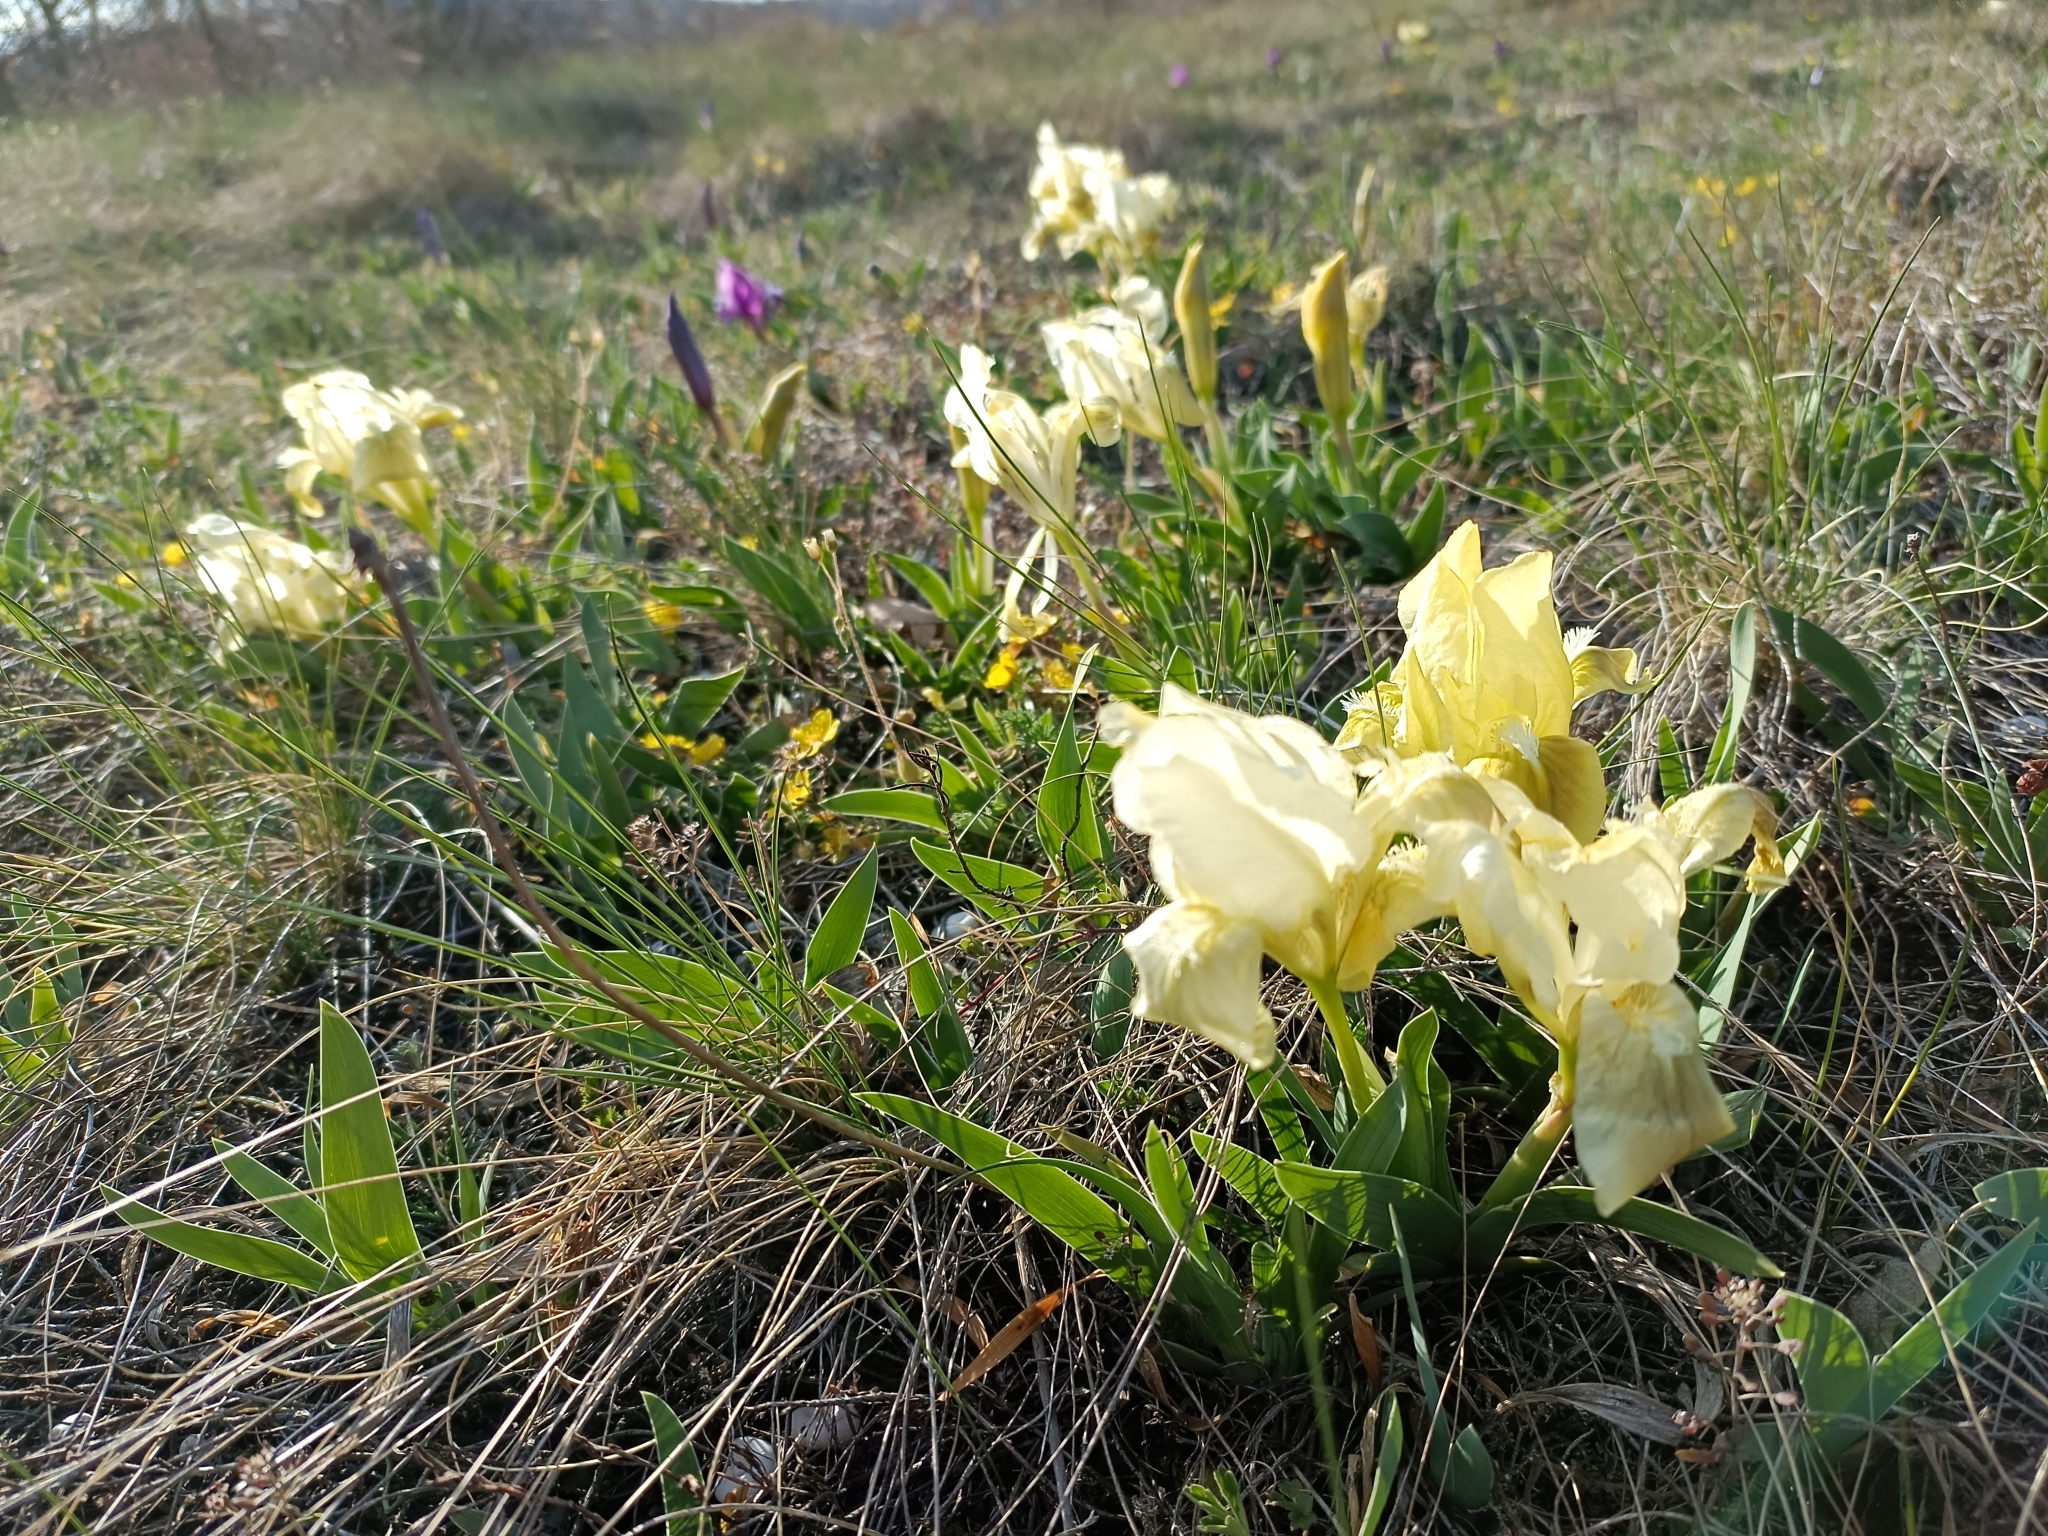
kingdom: Plantae
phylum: Tracheophyta
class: Liliopsida
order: Asparagales
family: Iridaceae
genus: Iris
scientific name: Iris pumila
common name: Dwarf iris
